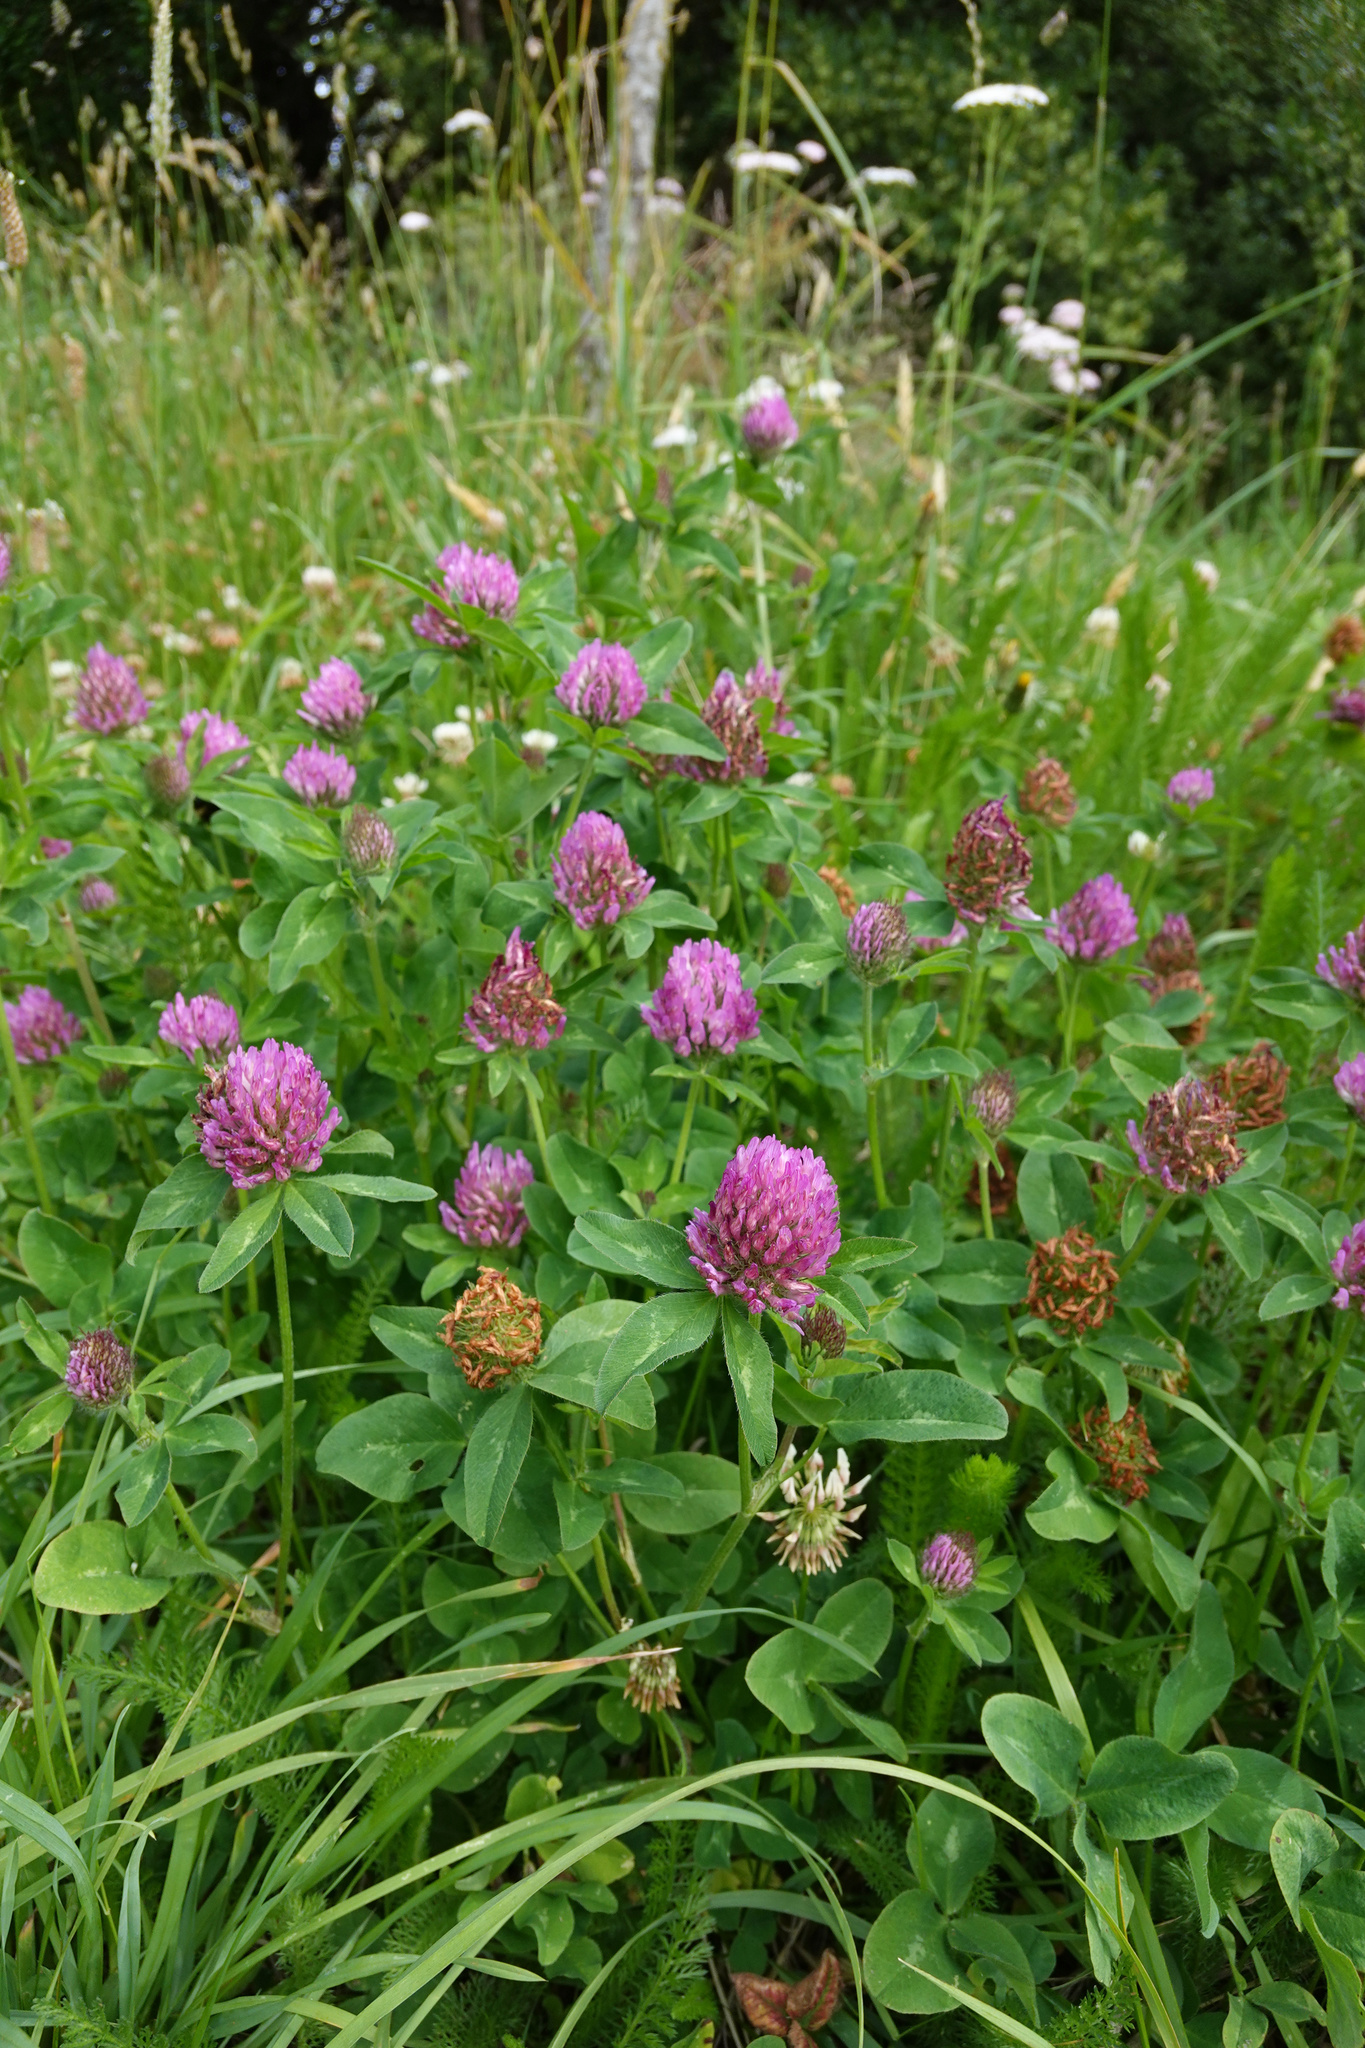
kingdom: Plantae
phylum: Tracheophyta
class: Magnoliopsida
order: Fabales
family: Fabaceae
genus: Trifolium
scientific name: Trifolium pratense
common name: Red clover
